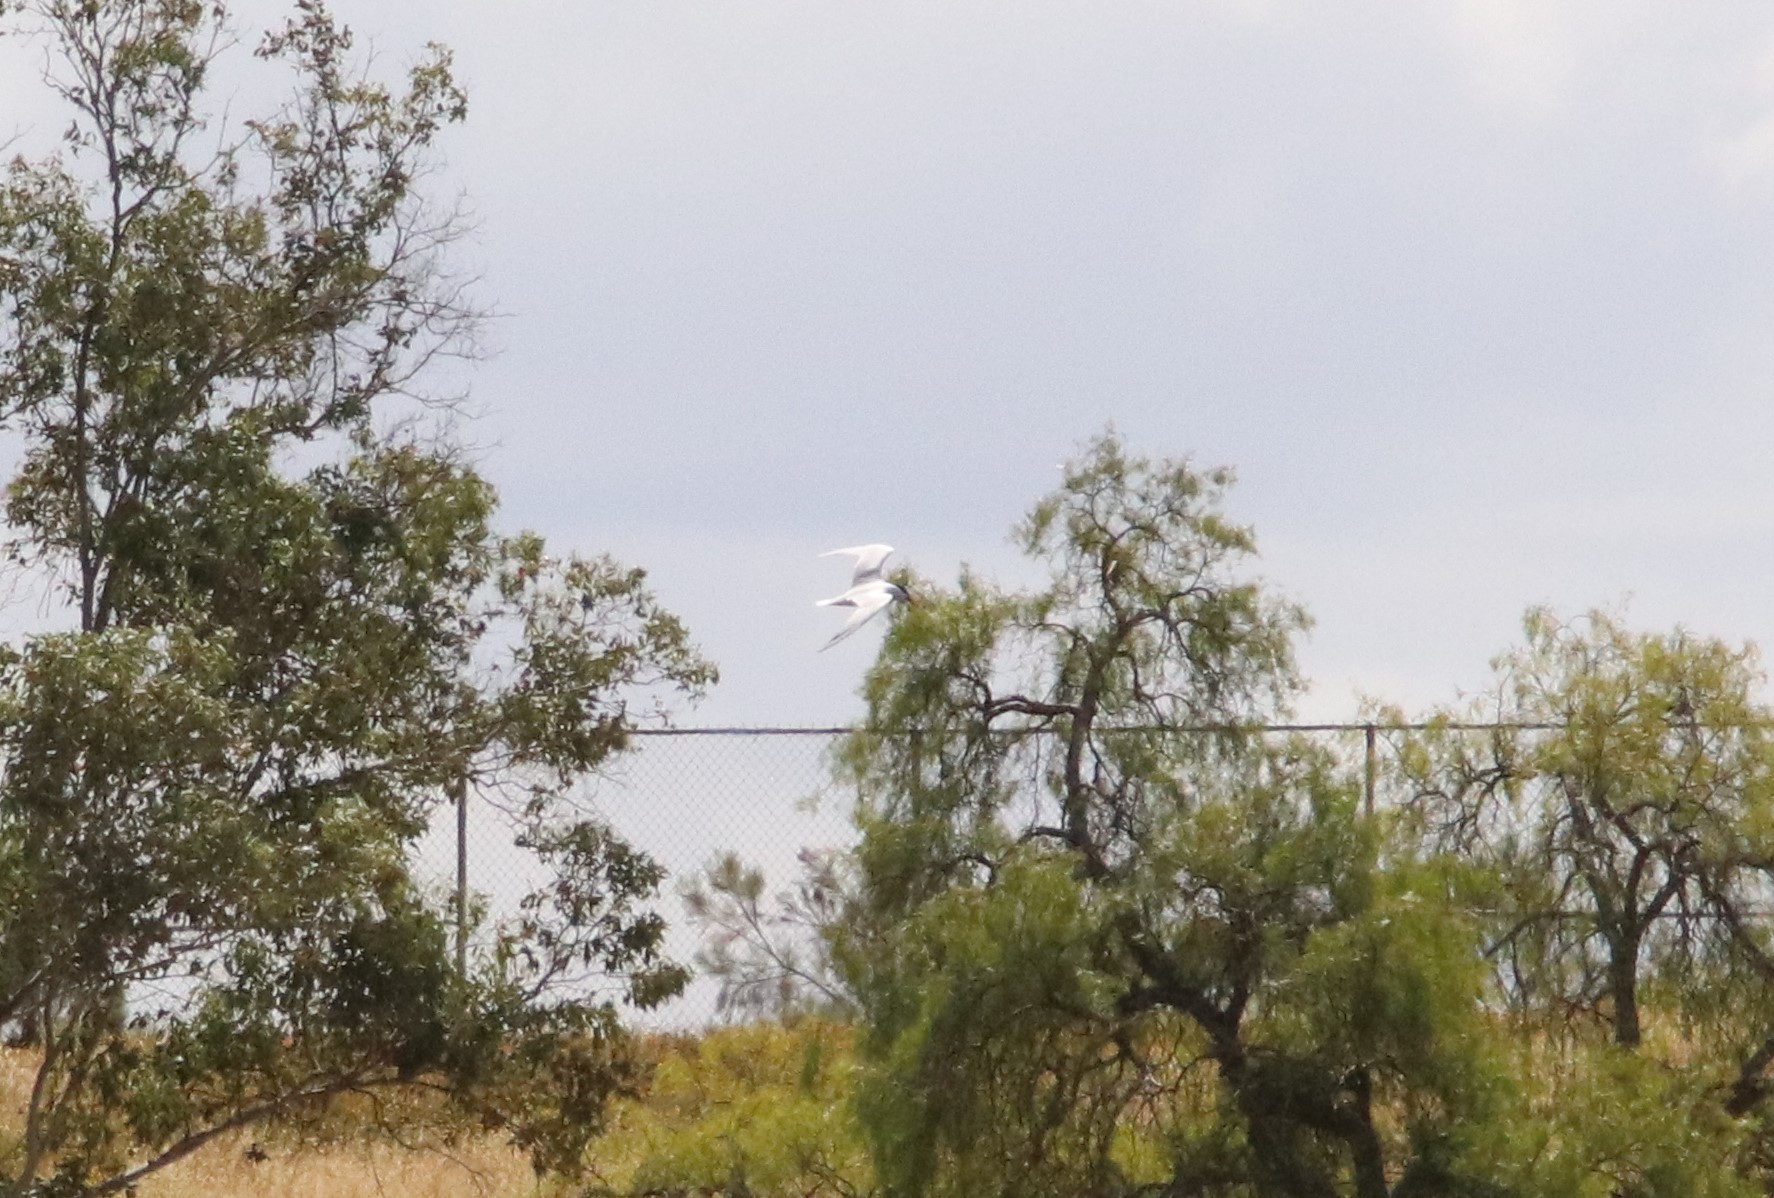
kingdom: Animalia
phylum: Chordata
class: Aves
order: Charadriiformes
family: Laridae
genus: Hydroprogne
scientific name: Hydroprogne caspia
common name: Caspian tern
